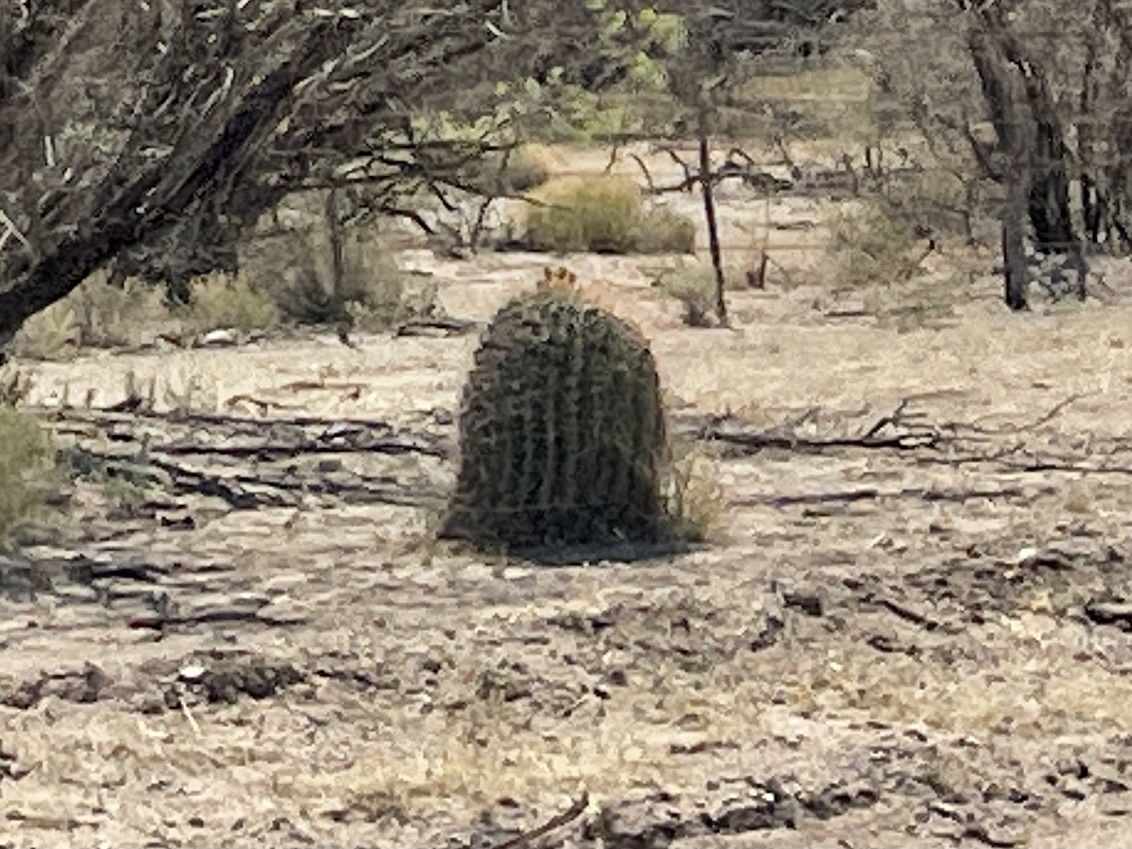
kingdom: Plantae
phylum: Tracheophyta
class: Magnoliopsida
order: Caryophyllales
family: Cactaceae
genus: Ferocactus
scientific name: Ferocactus wislizeni
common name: Candy barrel cactus
